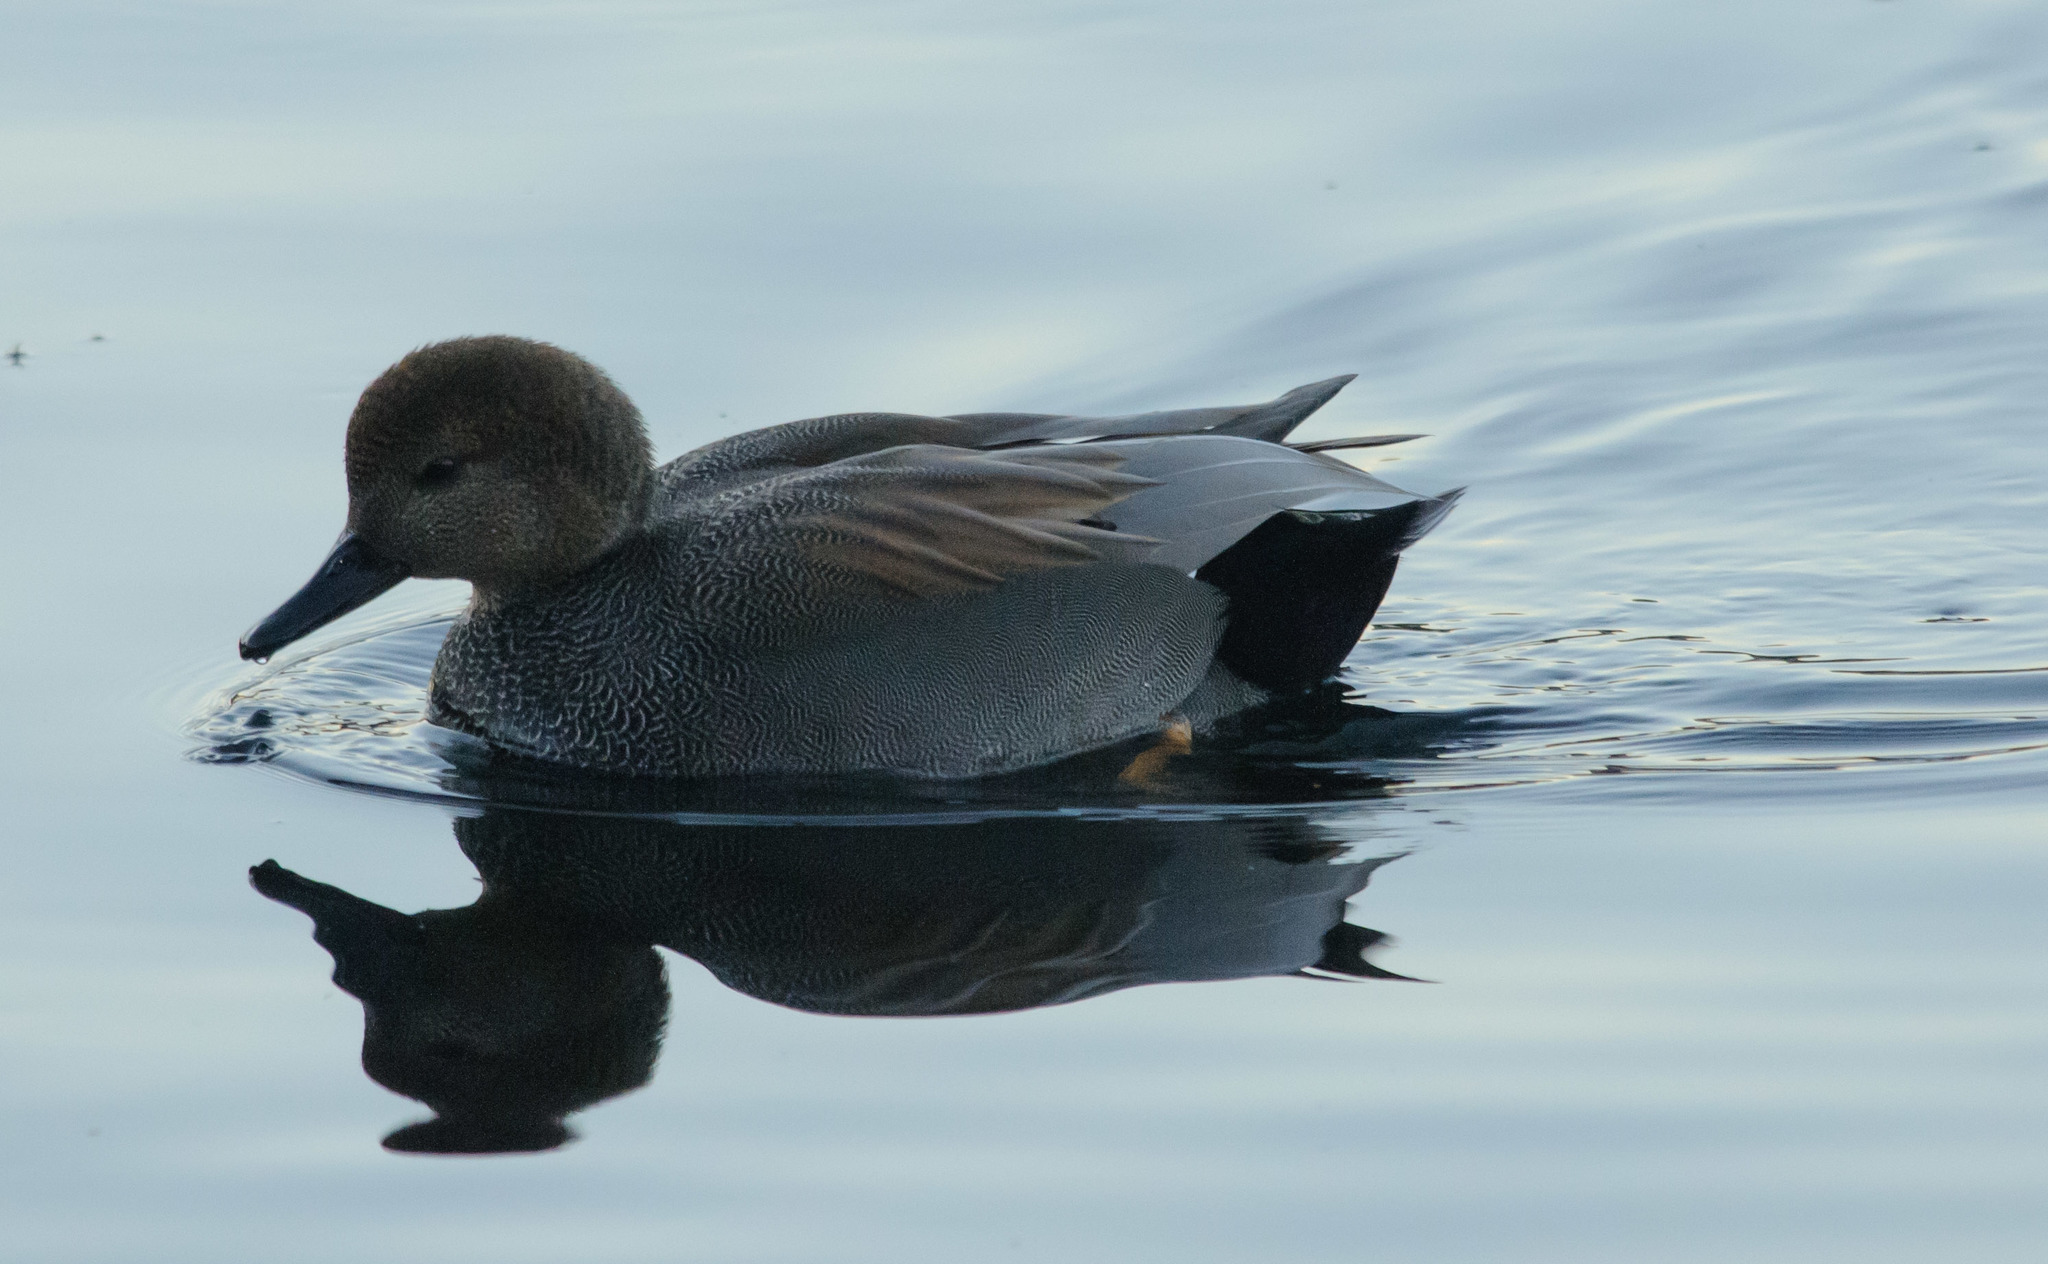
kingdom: Animalia
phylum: Chordata
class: Aves
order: Anseriformes
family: Anatidae
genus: Mareca
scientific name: Mareca strepera
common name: Gadwall
